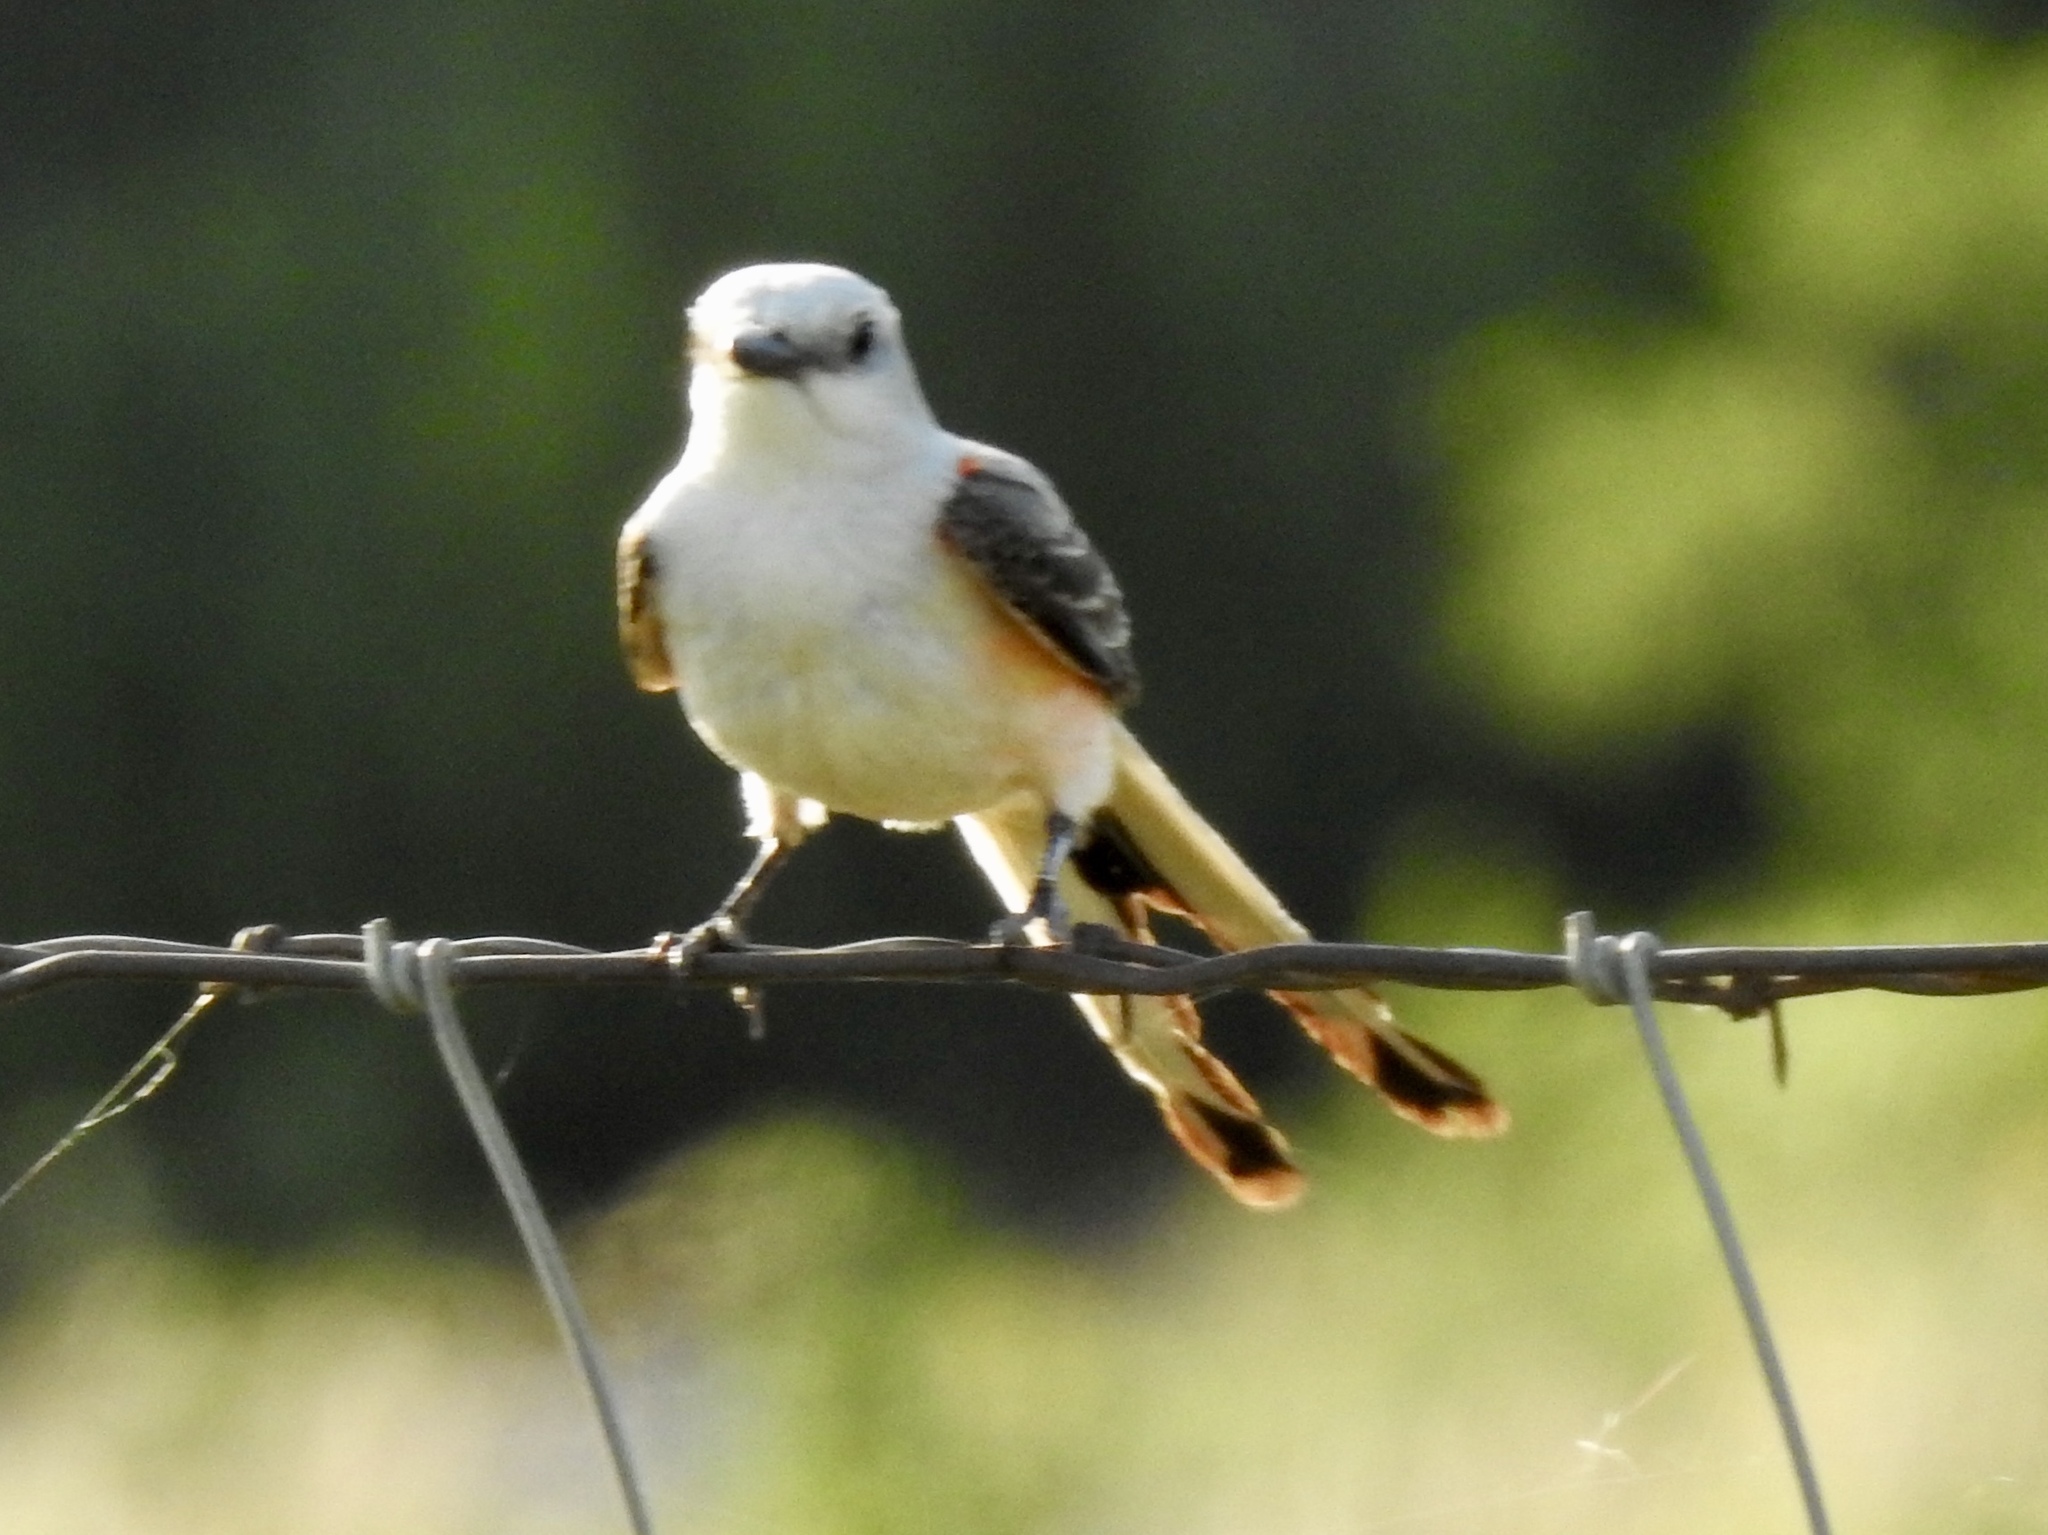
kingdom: Animalia
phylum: Chordata
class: Aves
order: Passeriformes
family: Tyrannidae
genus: Tyrannus
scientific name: Tyrannus forficatus
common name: Scissor-tailed flycatcher
